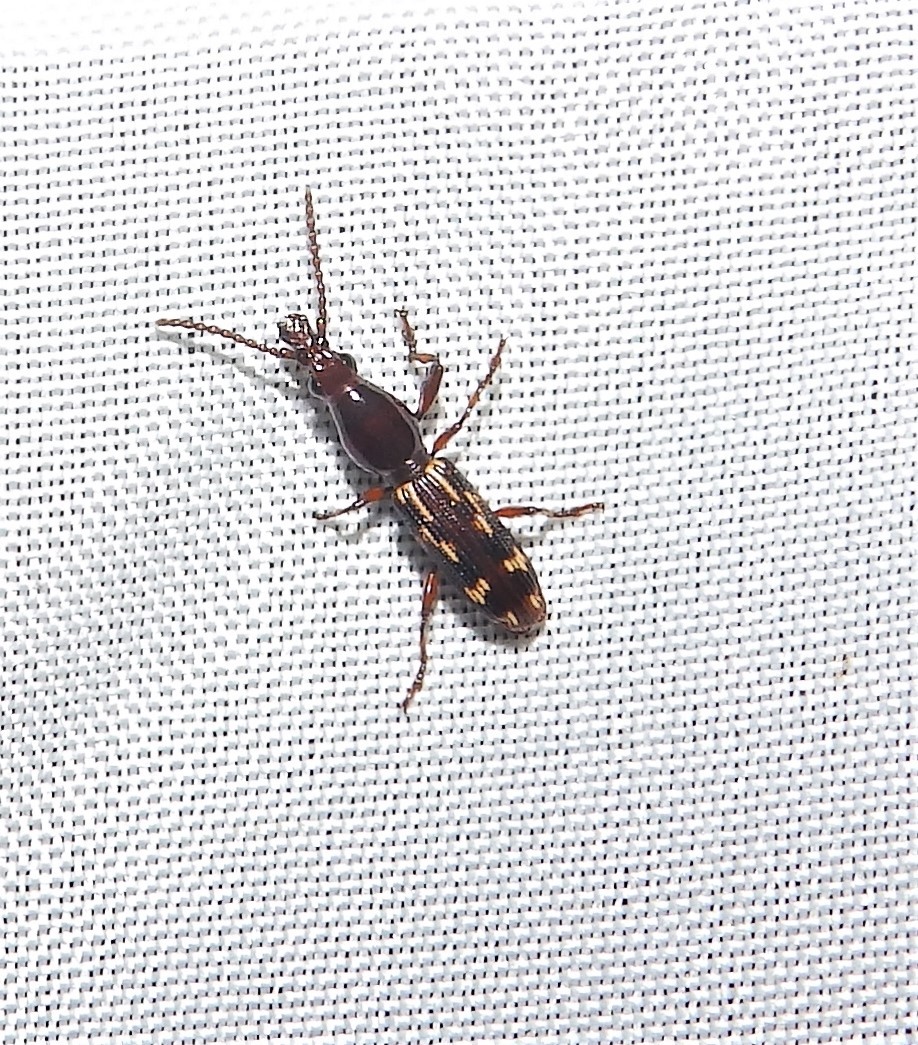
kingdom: Animalia
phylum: Arthropoda
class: Insecta
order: Coleoptera
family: Brentidae
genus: Arrenodes
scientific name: Arrenodes minutus
